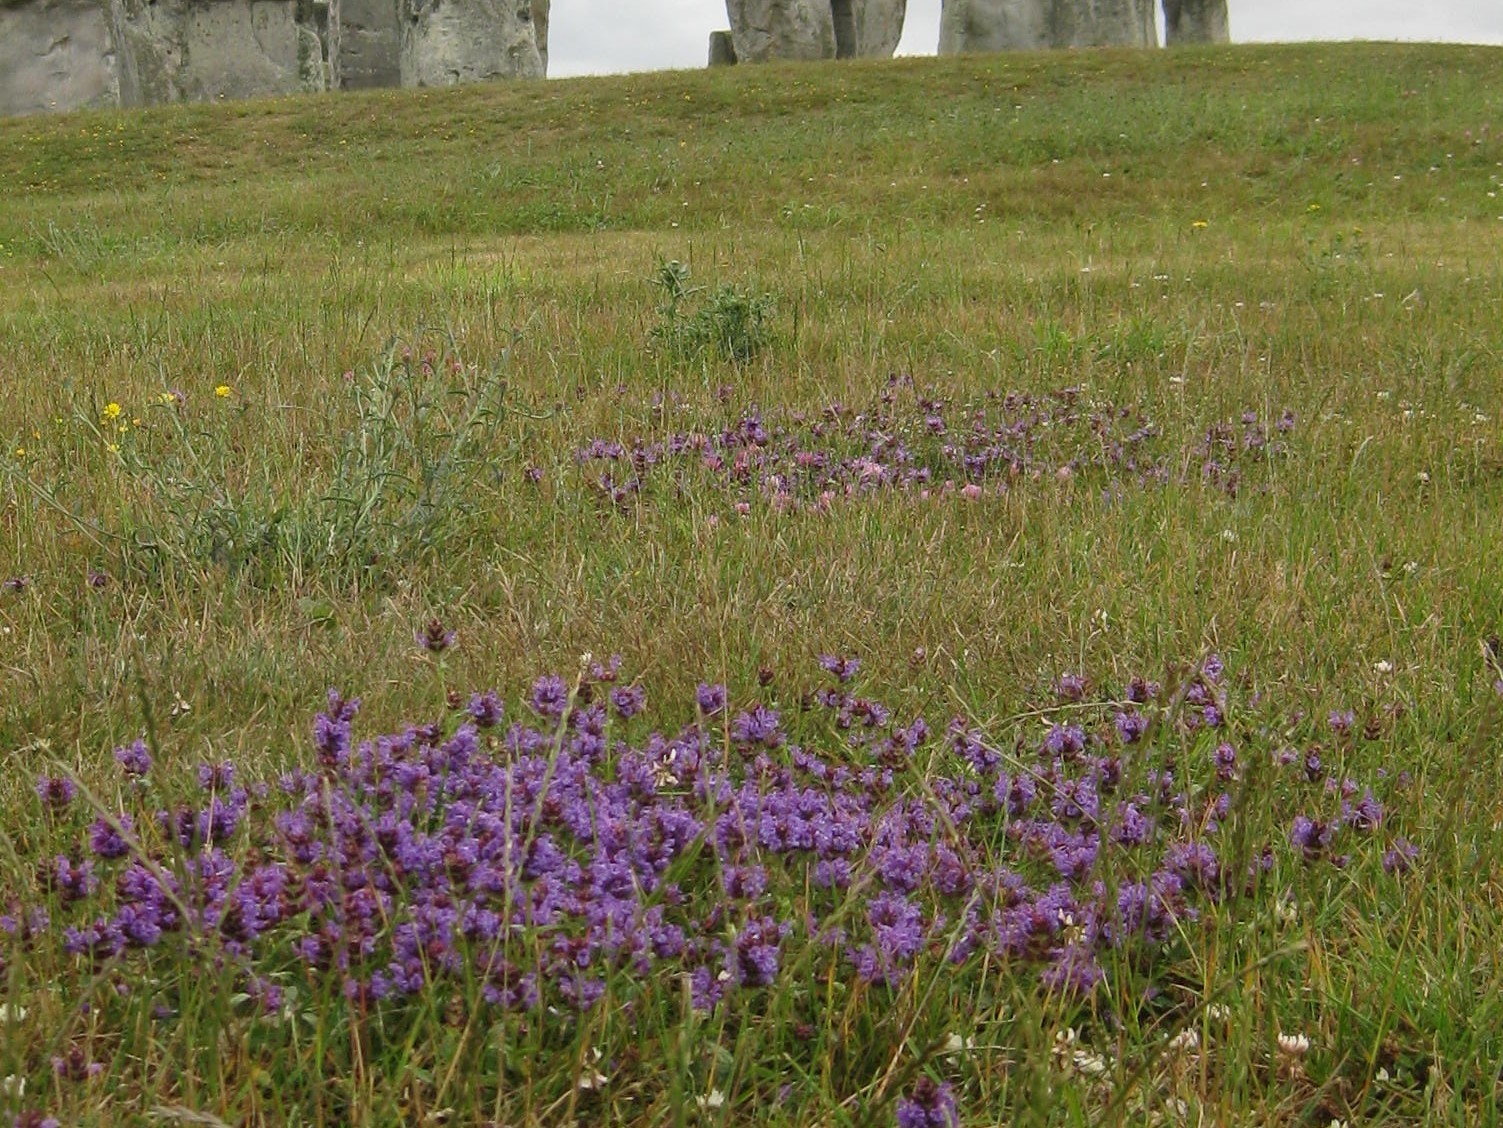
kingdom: Plantae
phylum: Tracheophyta
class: Magnoliopsida
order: Lamiales
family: Lamiaceae
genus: Prunella
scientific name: Prunella vulgaris
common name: Heal-all
